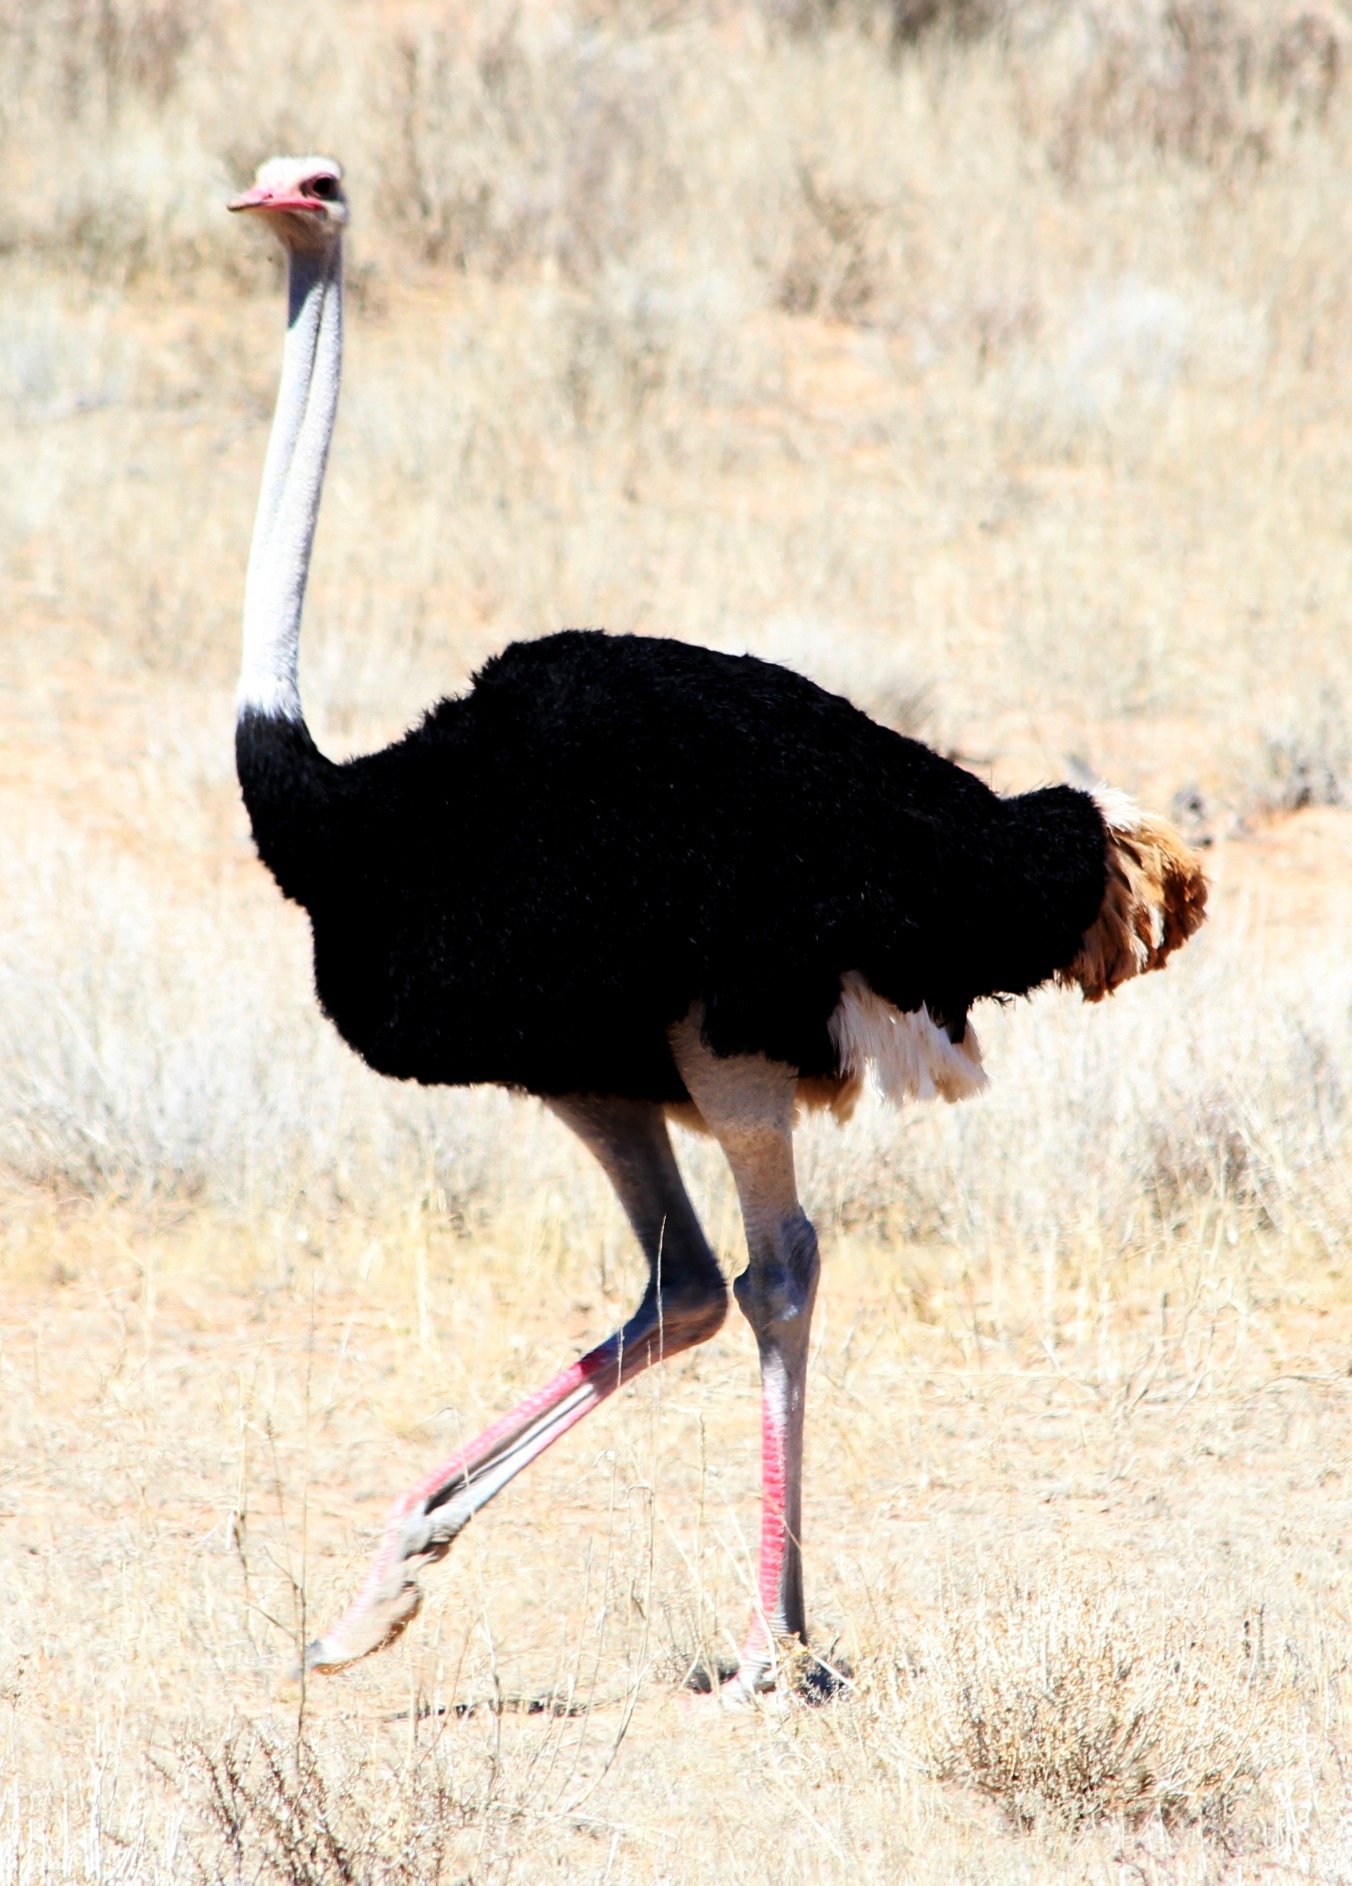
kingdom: Animalia
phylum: Chordata
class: Aves
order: Struthioniformes
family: Struthionidae
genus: Struthio
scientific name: Struthio camelus
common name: Common ostrich
